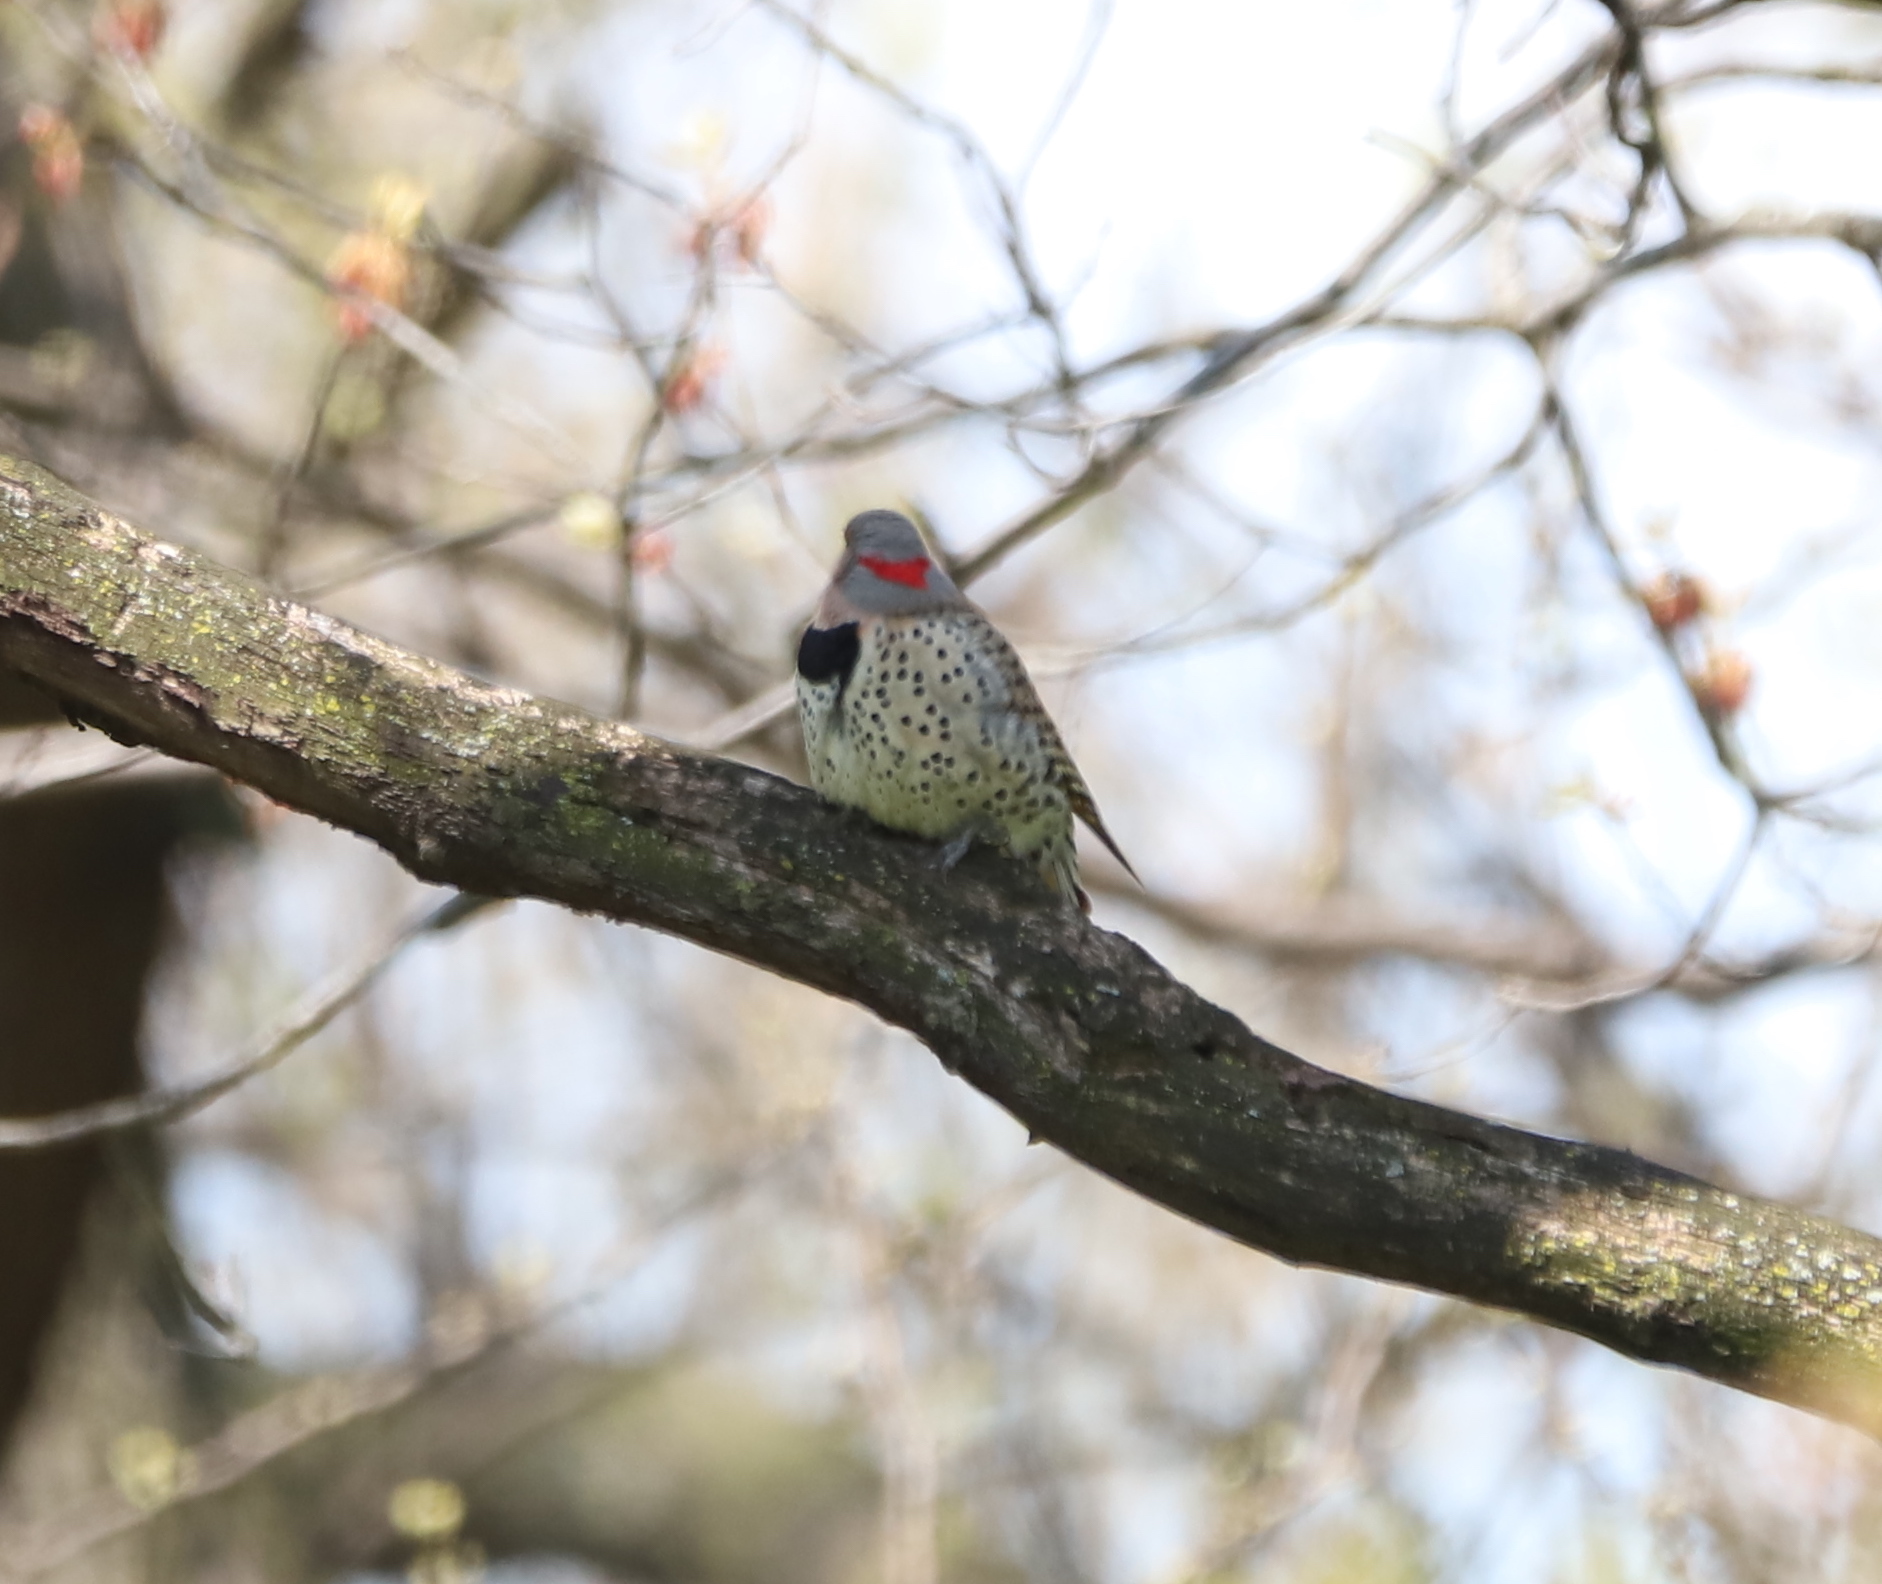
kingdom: Animalia
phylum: Chordata
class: Aves
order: Piciformes
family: Picidae
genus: Colaptes
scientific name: Colaptes auratus
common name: Northern flicker
